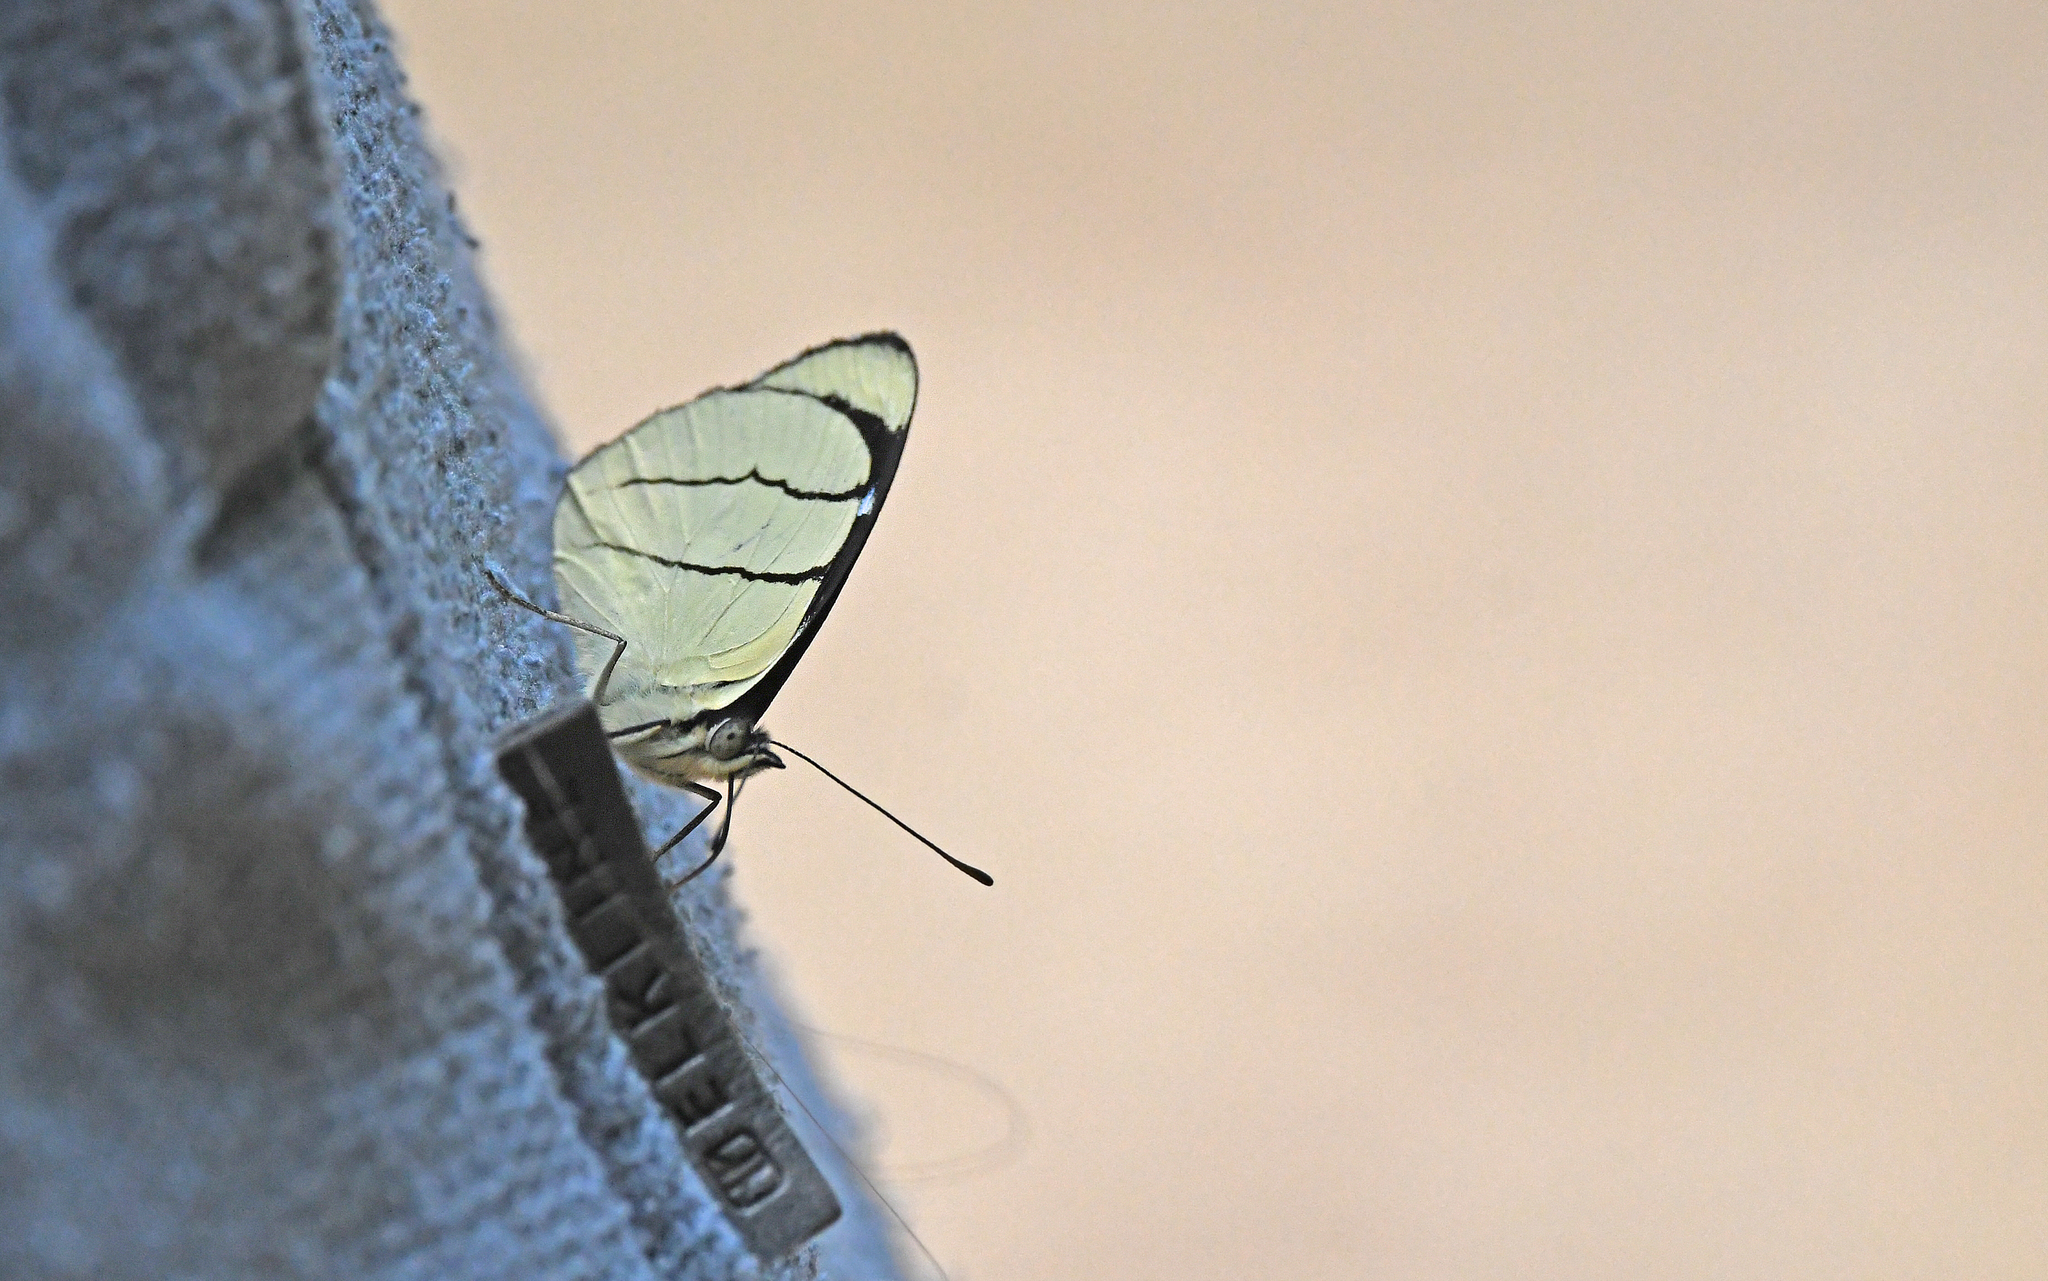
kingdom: Animalia
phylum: Arthropoda
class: Insecta
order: Lepidoptera
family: Nymphalidae
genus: Perisama
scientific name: Perisama oppelii
